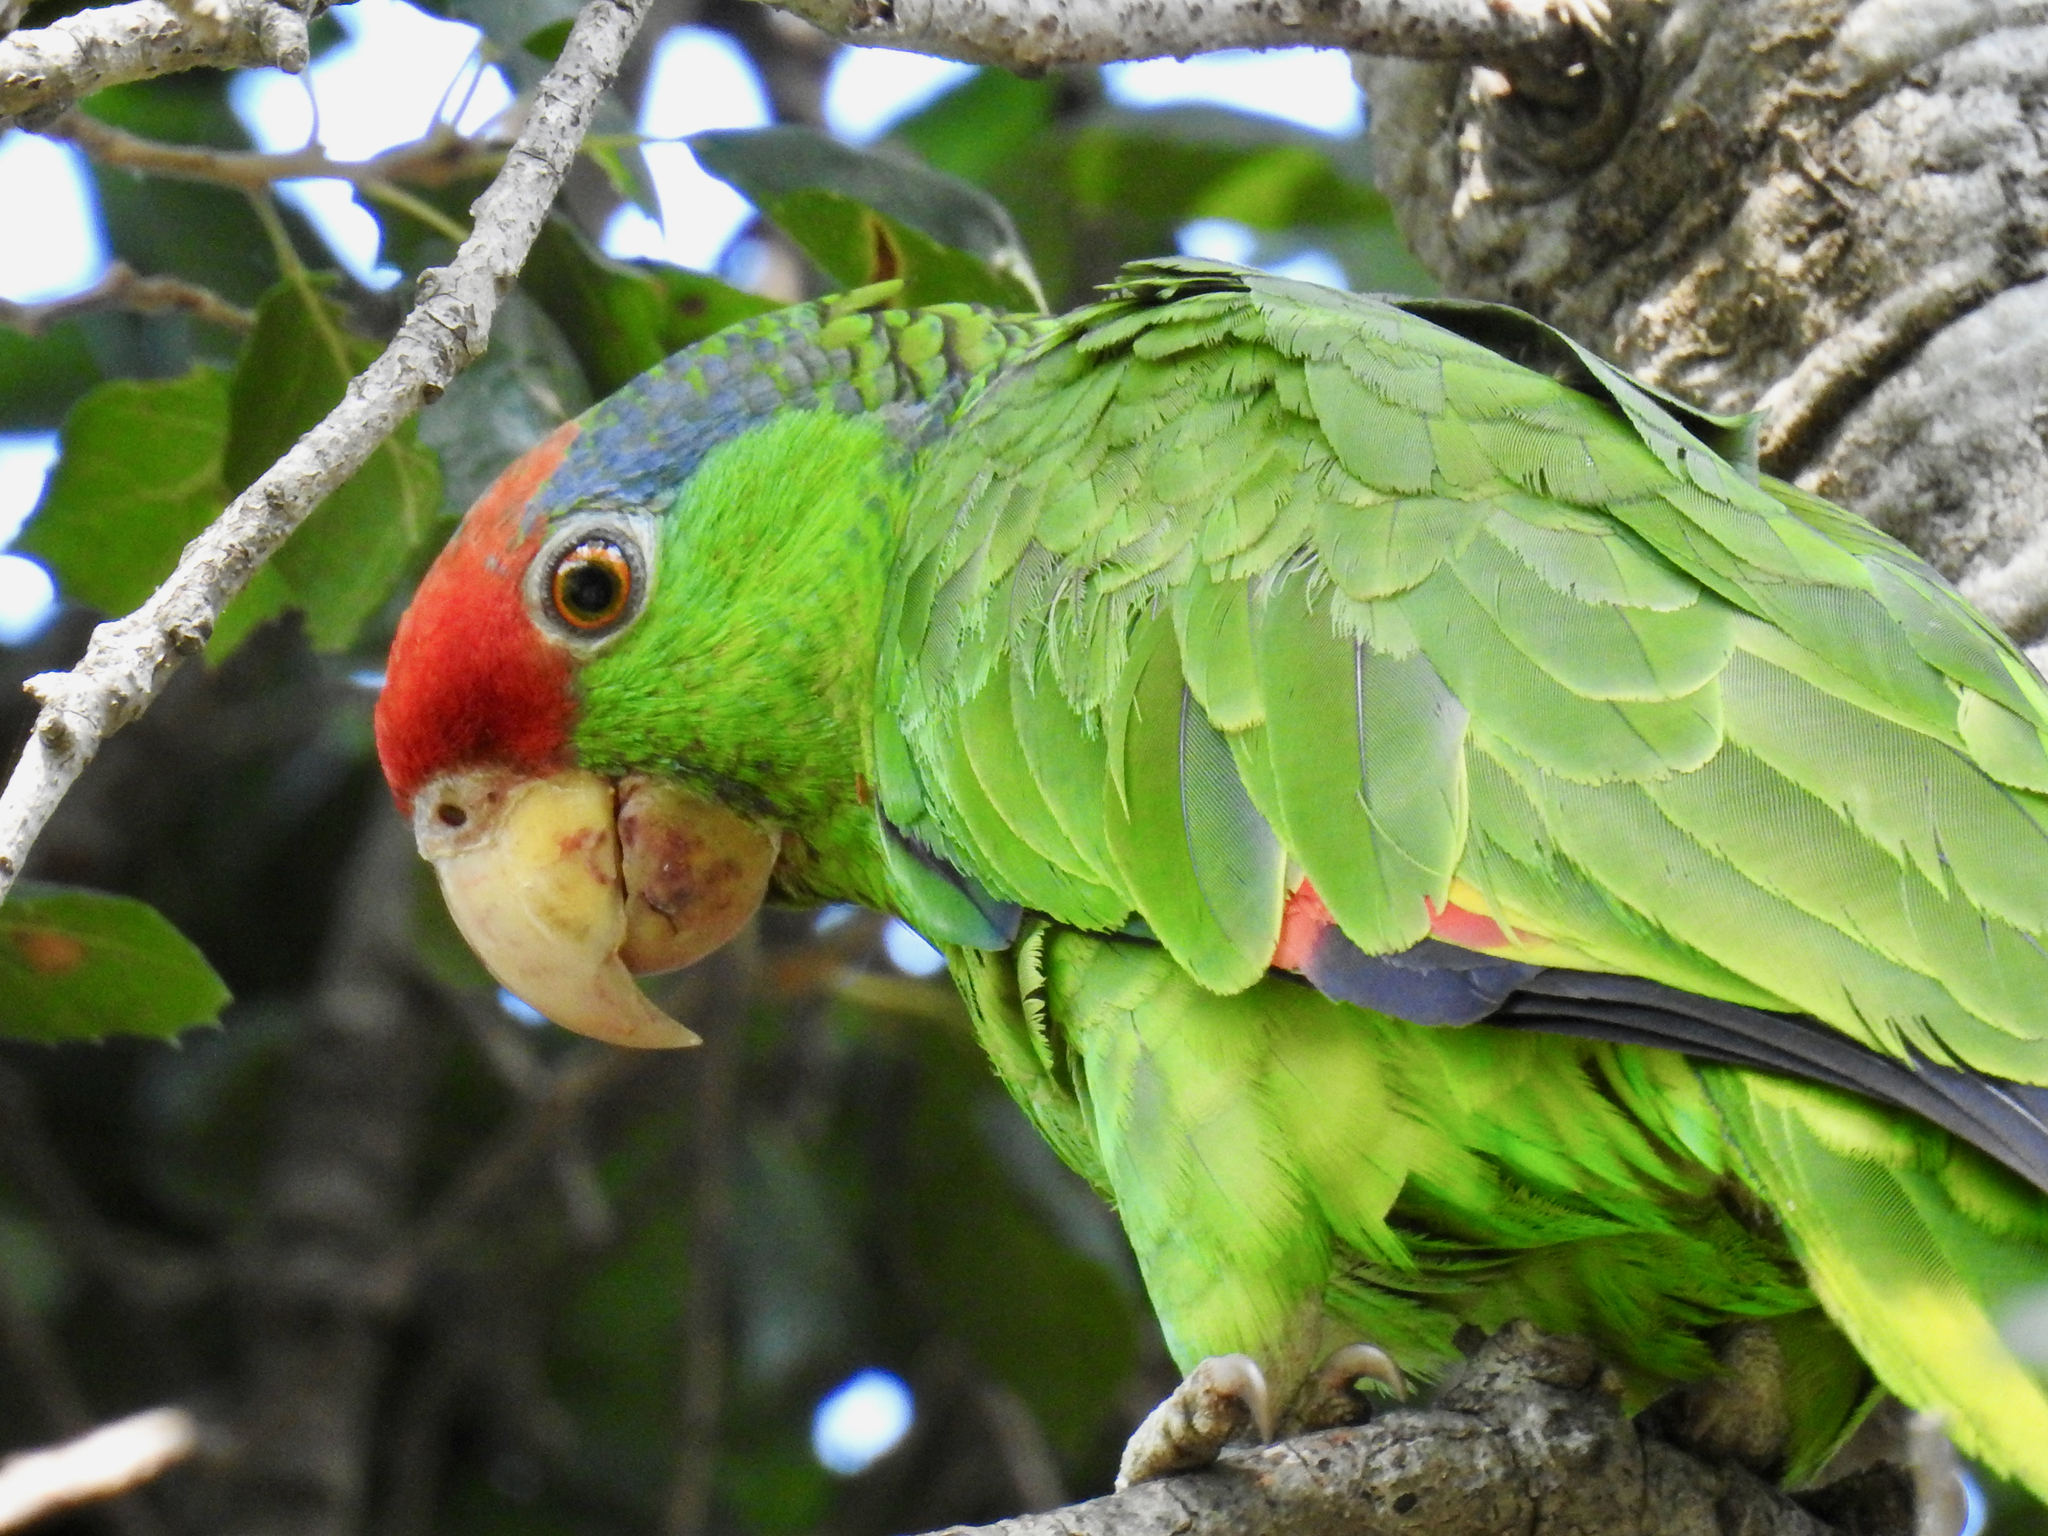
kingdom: Animalia
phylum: Chordata
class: Aves
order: Psittaciformes
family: Psittacidae
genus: Amazona
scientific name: Amazona viridigenalis
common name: Red-crowned amazon
